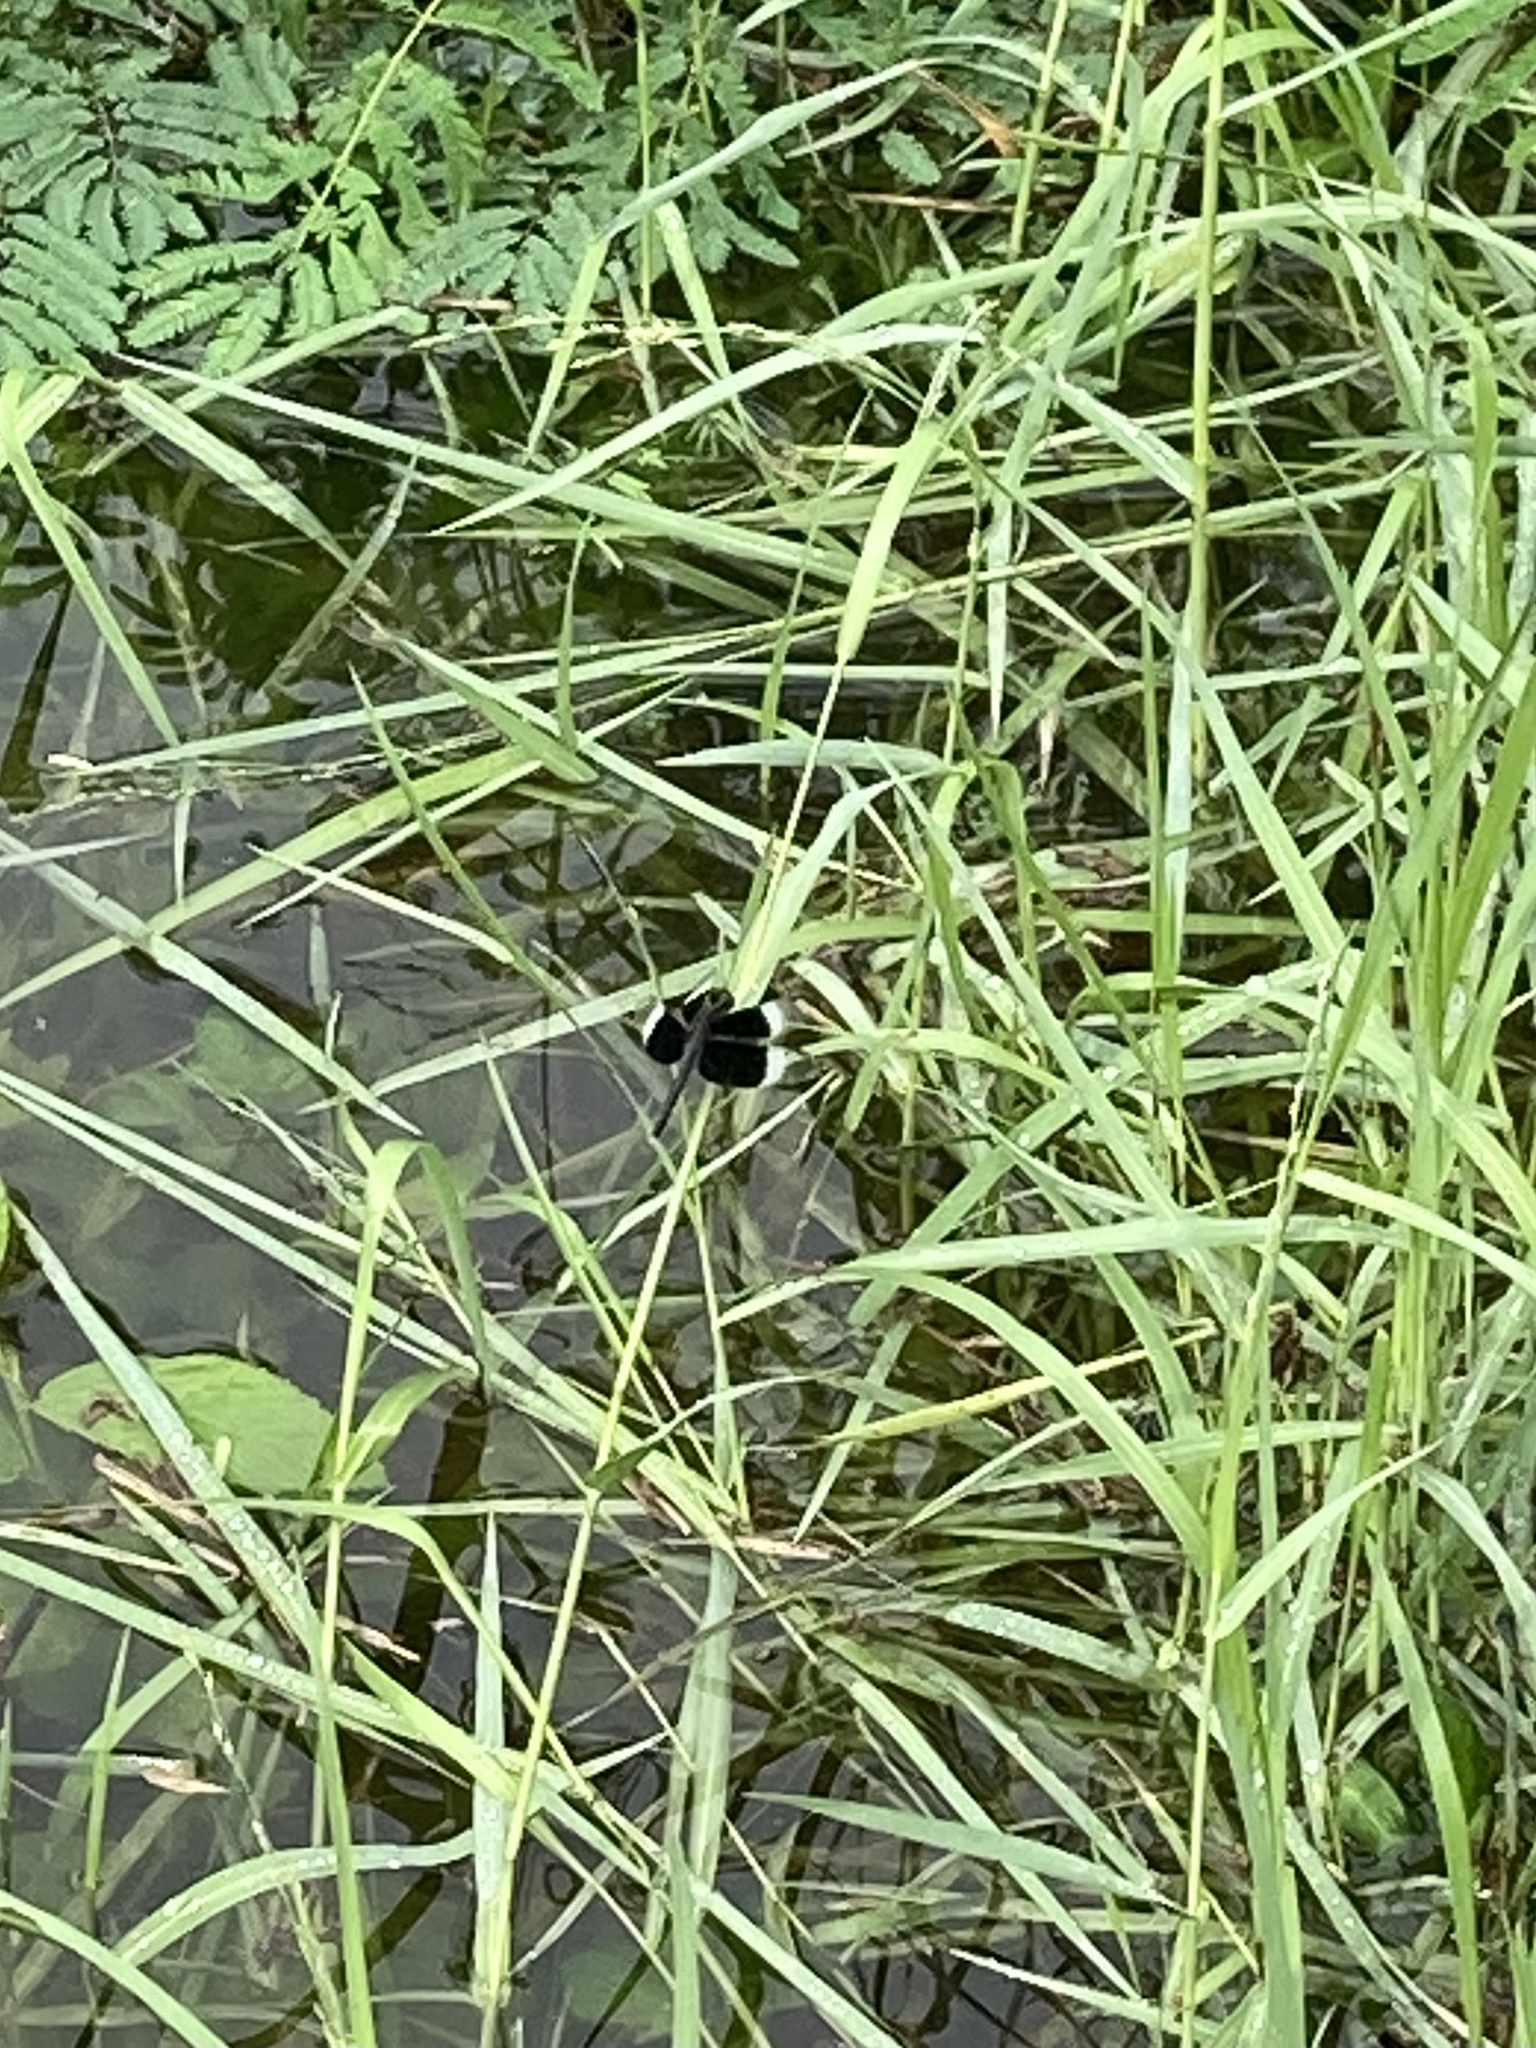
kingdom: Animalia
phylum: Arthropoda
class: Insecta
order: Odonata
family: Libellulidae
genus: Neurothemis
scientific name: Neurothemis tullia
